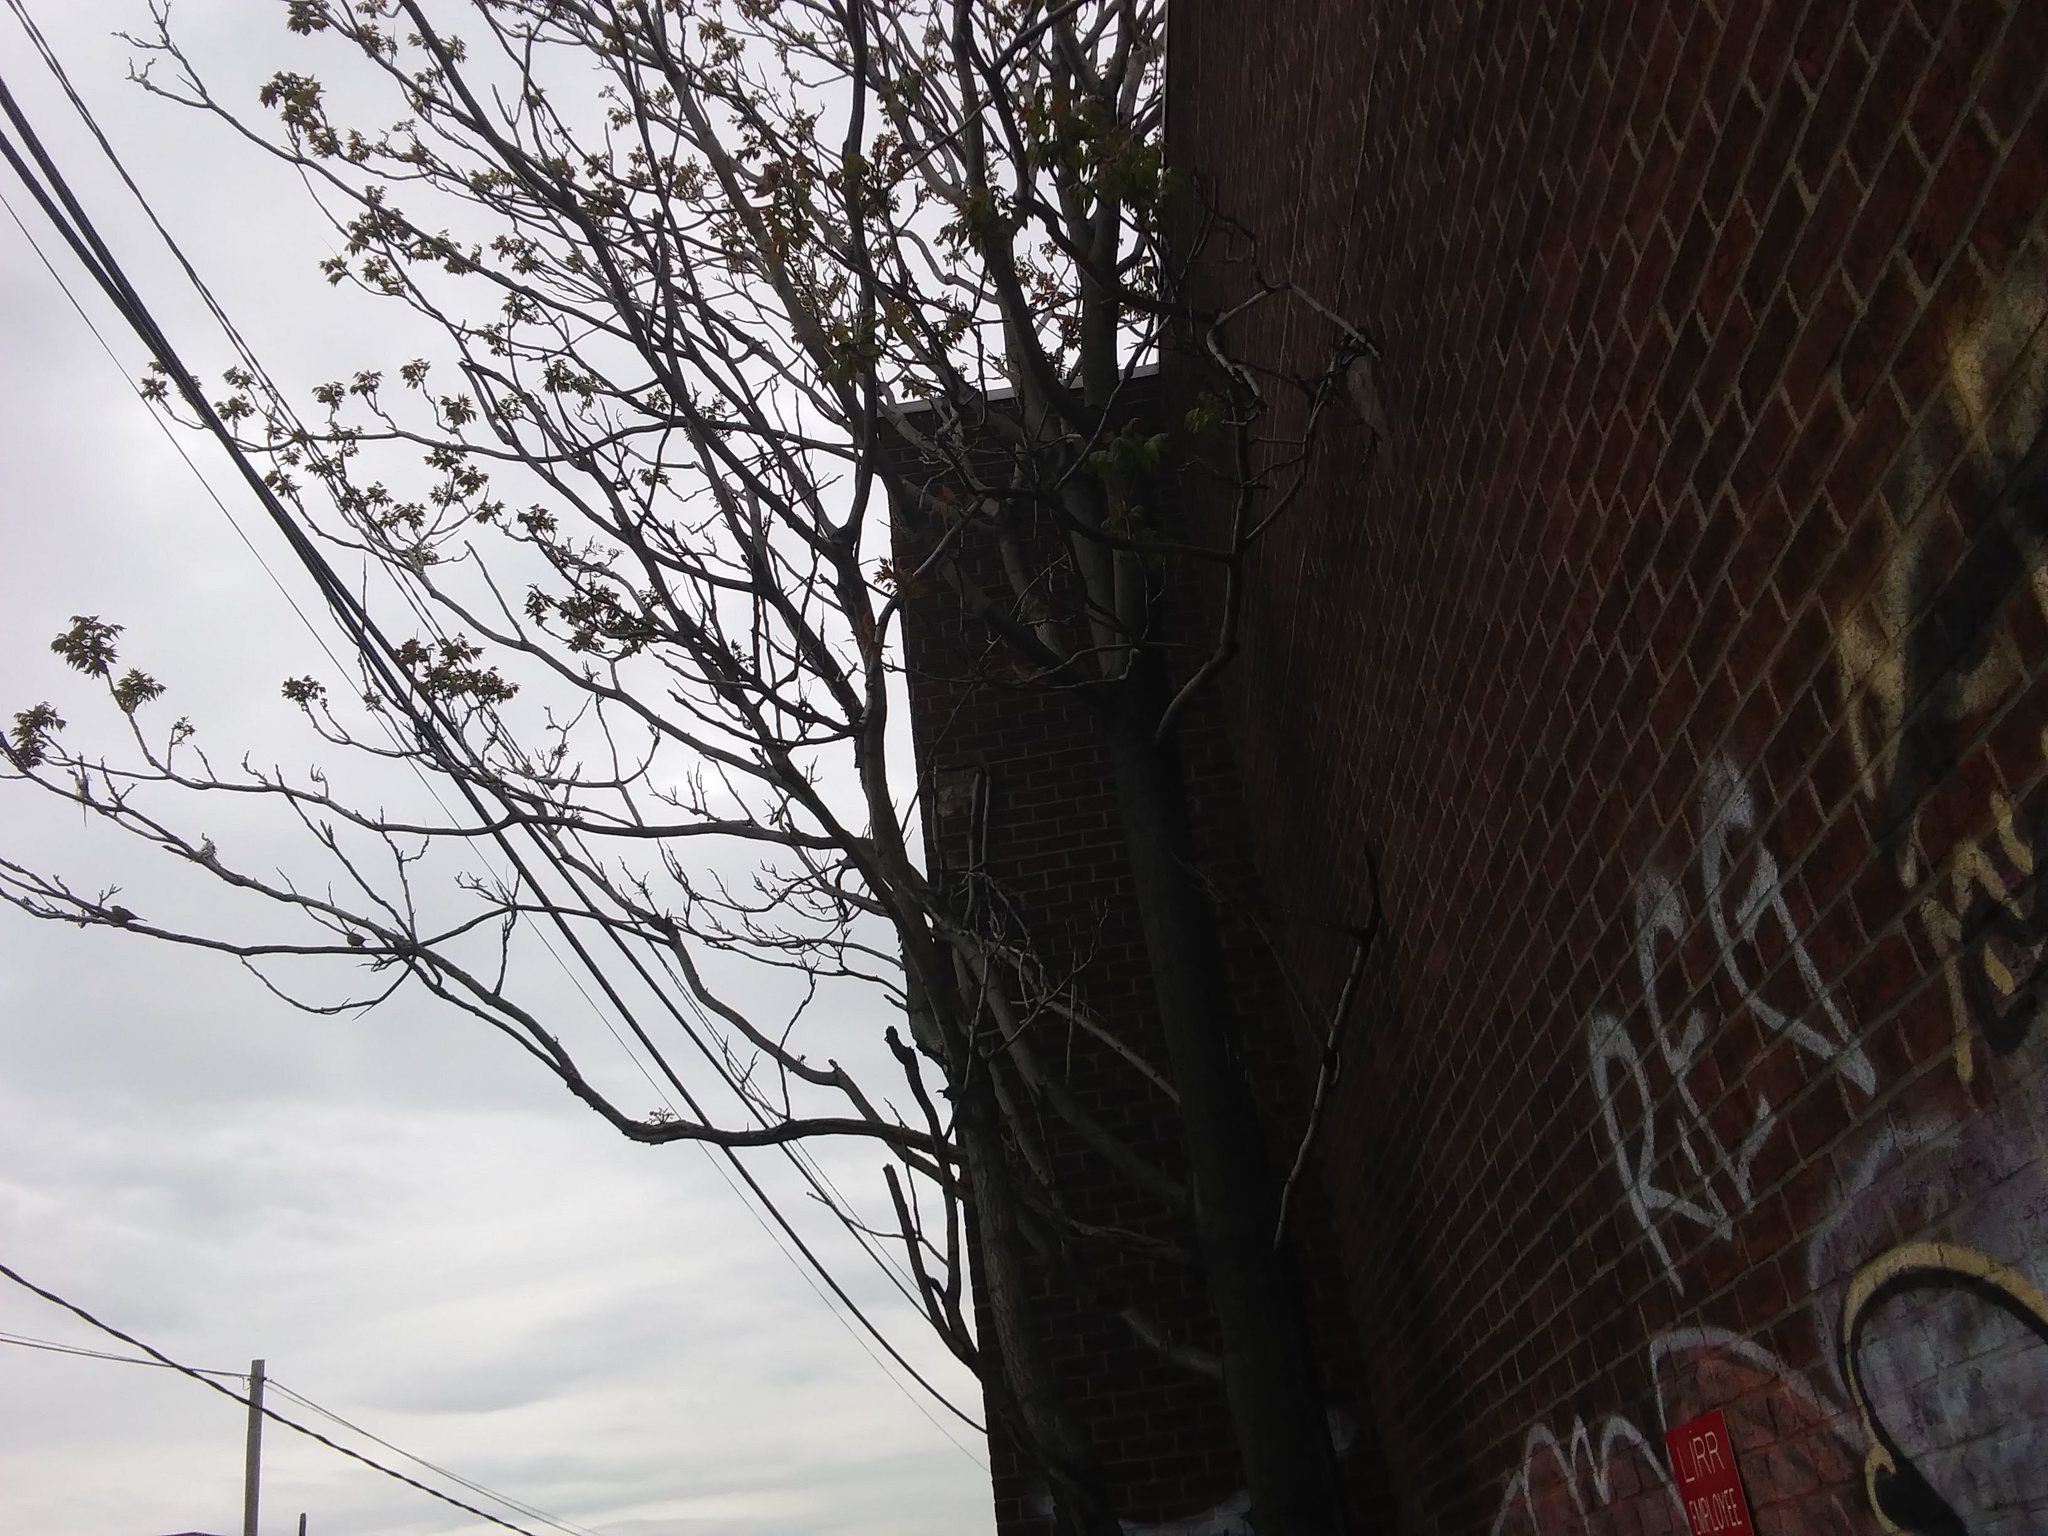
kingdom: Plantae
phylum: Tracheophyta
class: Magnoliopsida
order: Sapindales
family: Simaroubaceae
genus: Ailanthus
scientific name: Ailanthus altissima
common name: Tree-of-heaven
